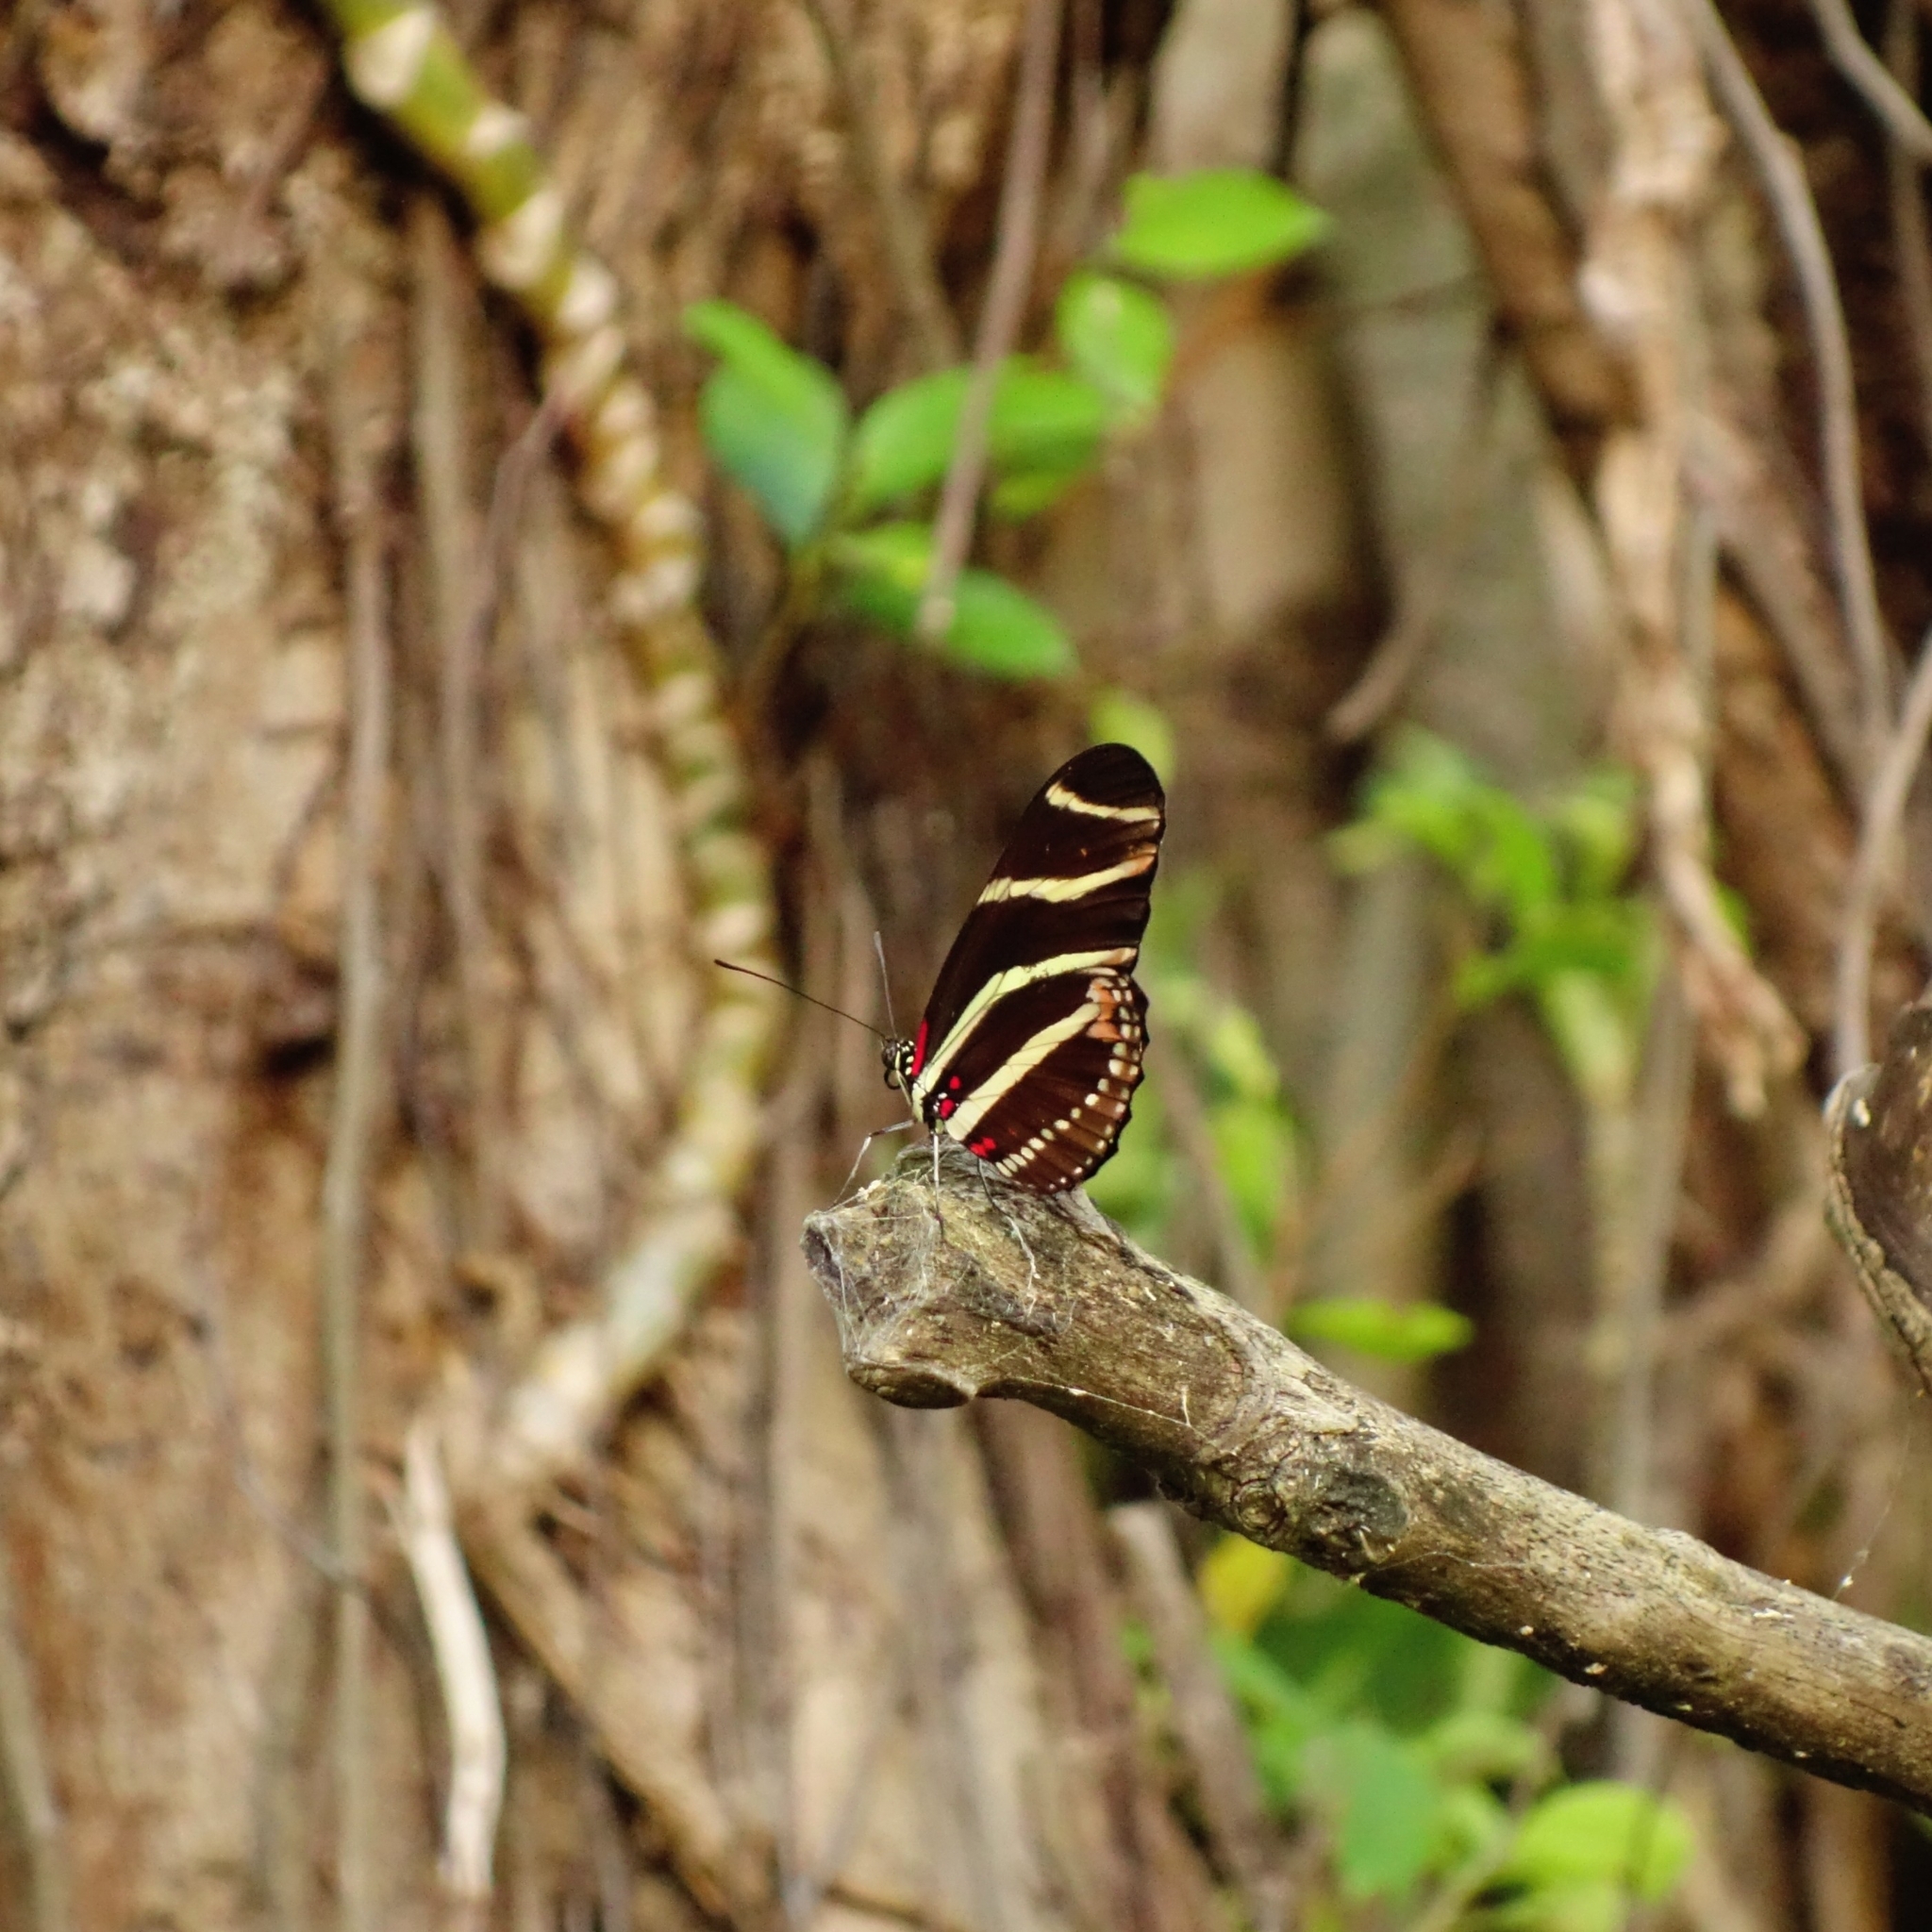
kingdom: Animalia
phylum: Arthropoda
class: Insecta
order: Lepidoptera
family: Nymphalidae
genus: Heliconius
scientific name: Heliconius charithonia
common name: Zebra long wing
